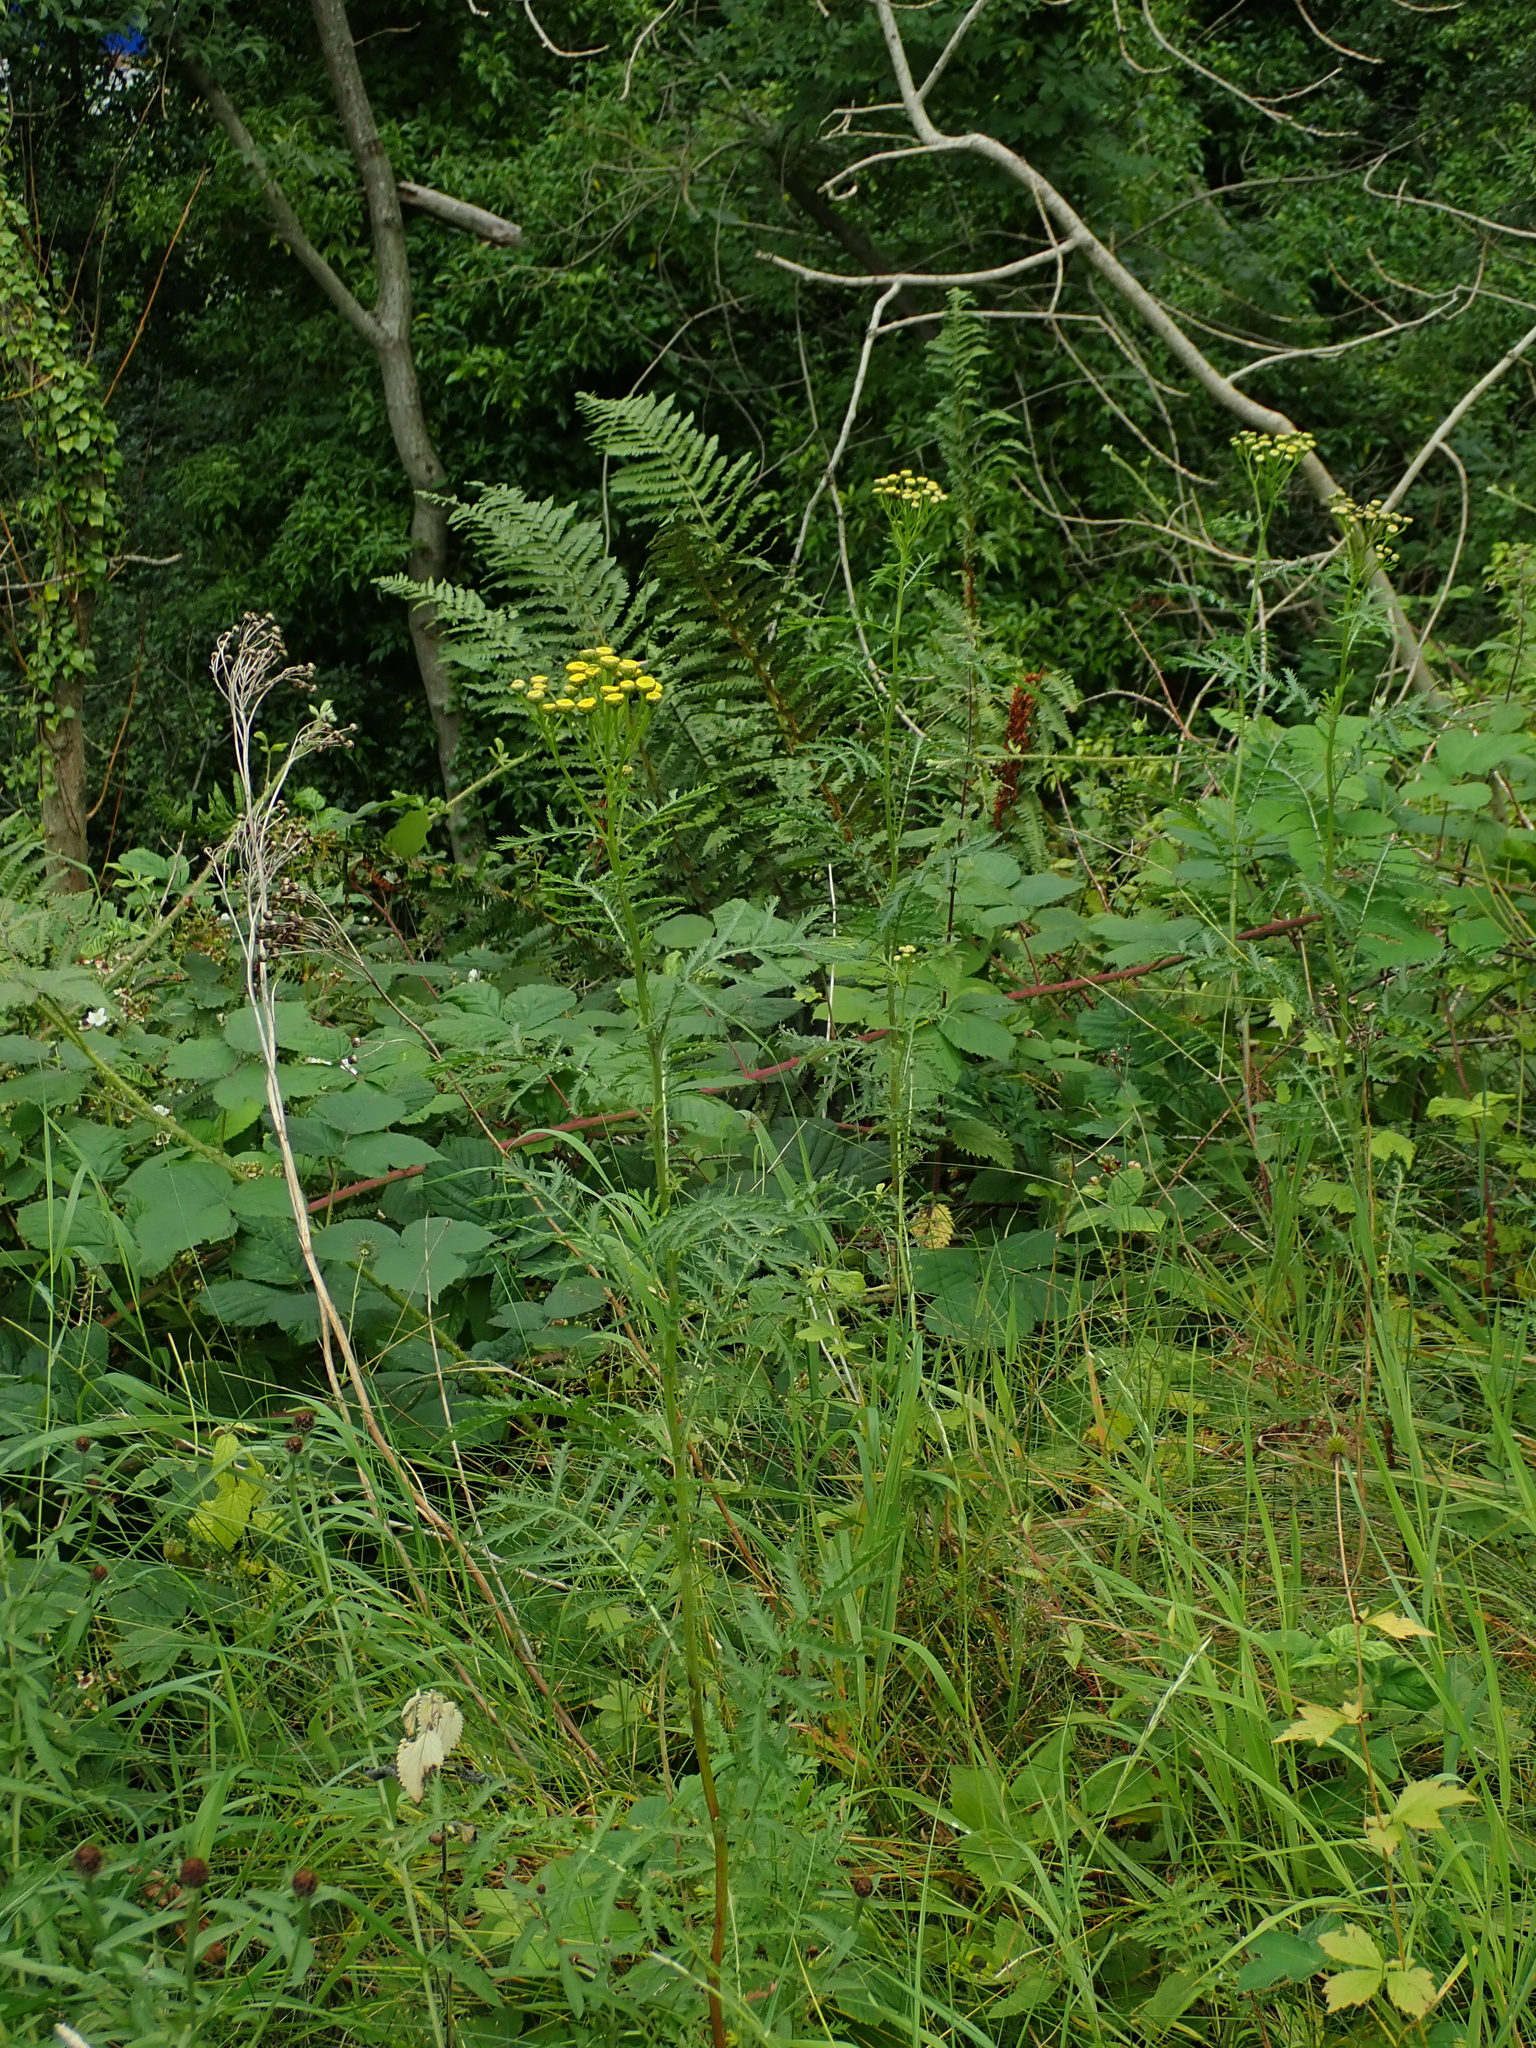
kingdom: Plantae
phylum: Tracheophyta
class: Magnoliopsida
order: Asterales
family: Asteraceae
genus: Tanacetum
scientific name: Tanacetum vulgare
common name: Common tansy
